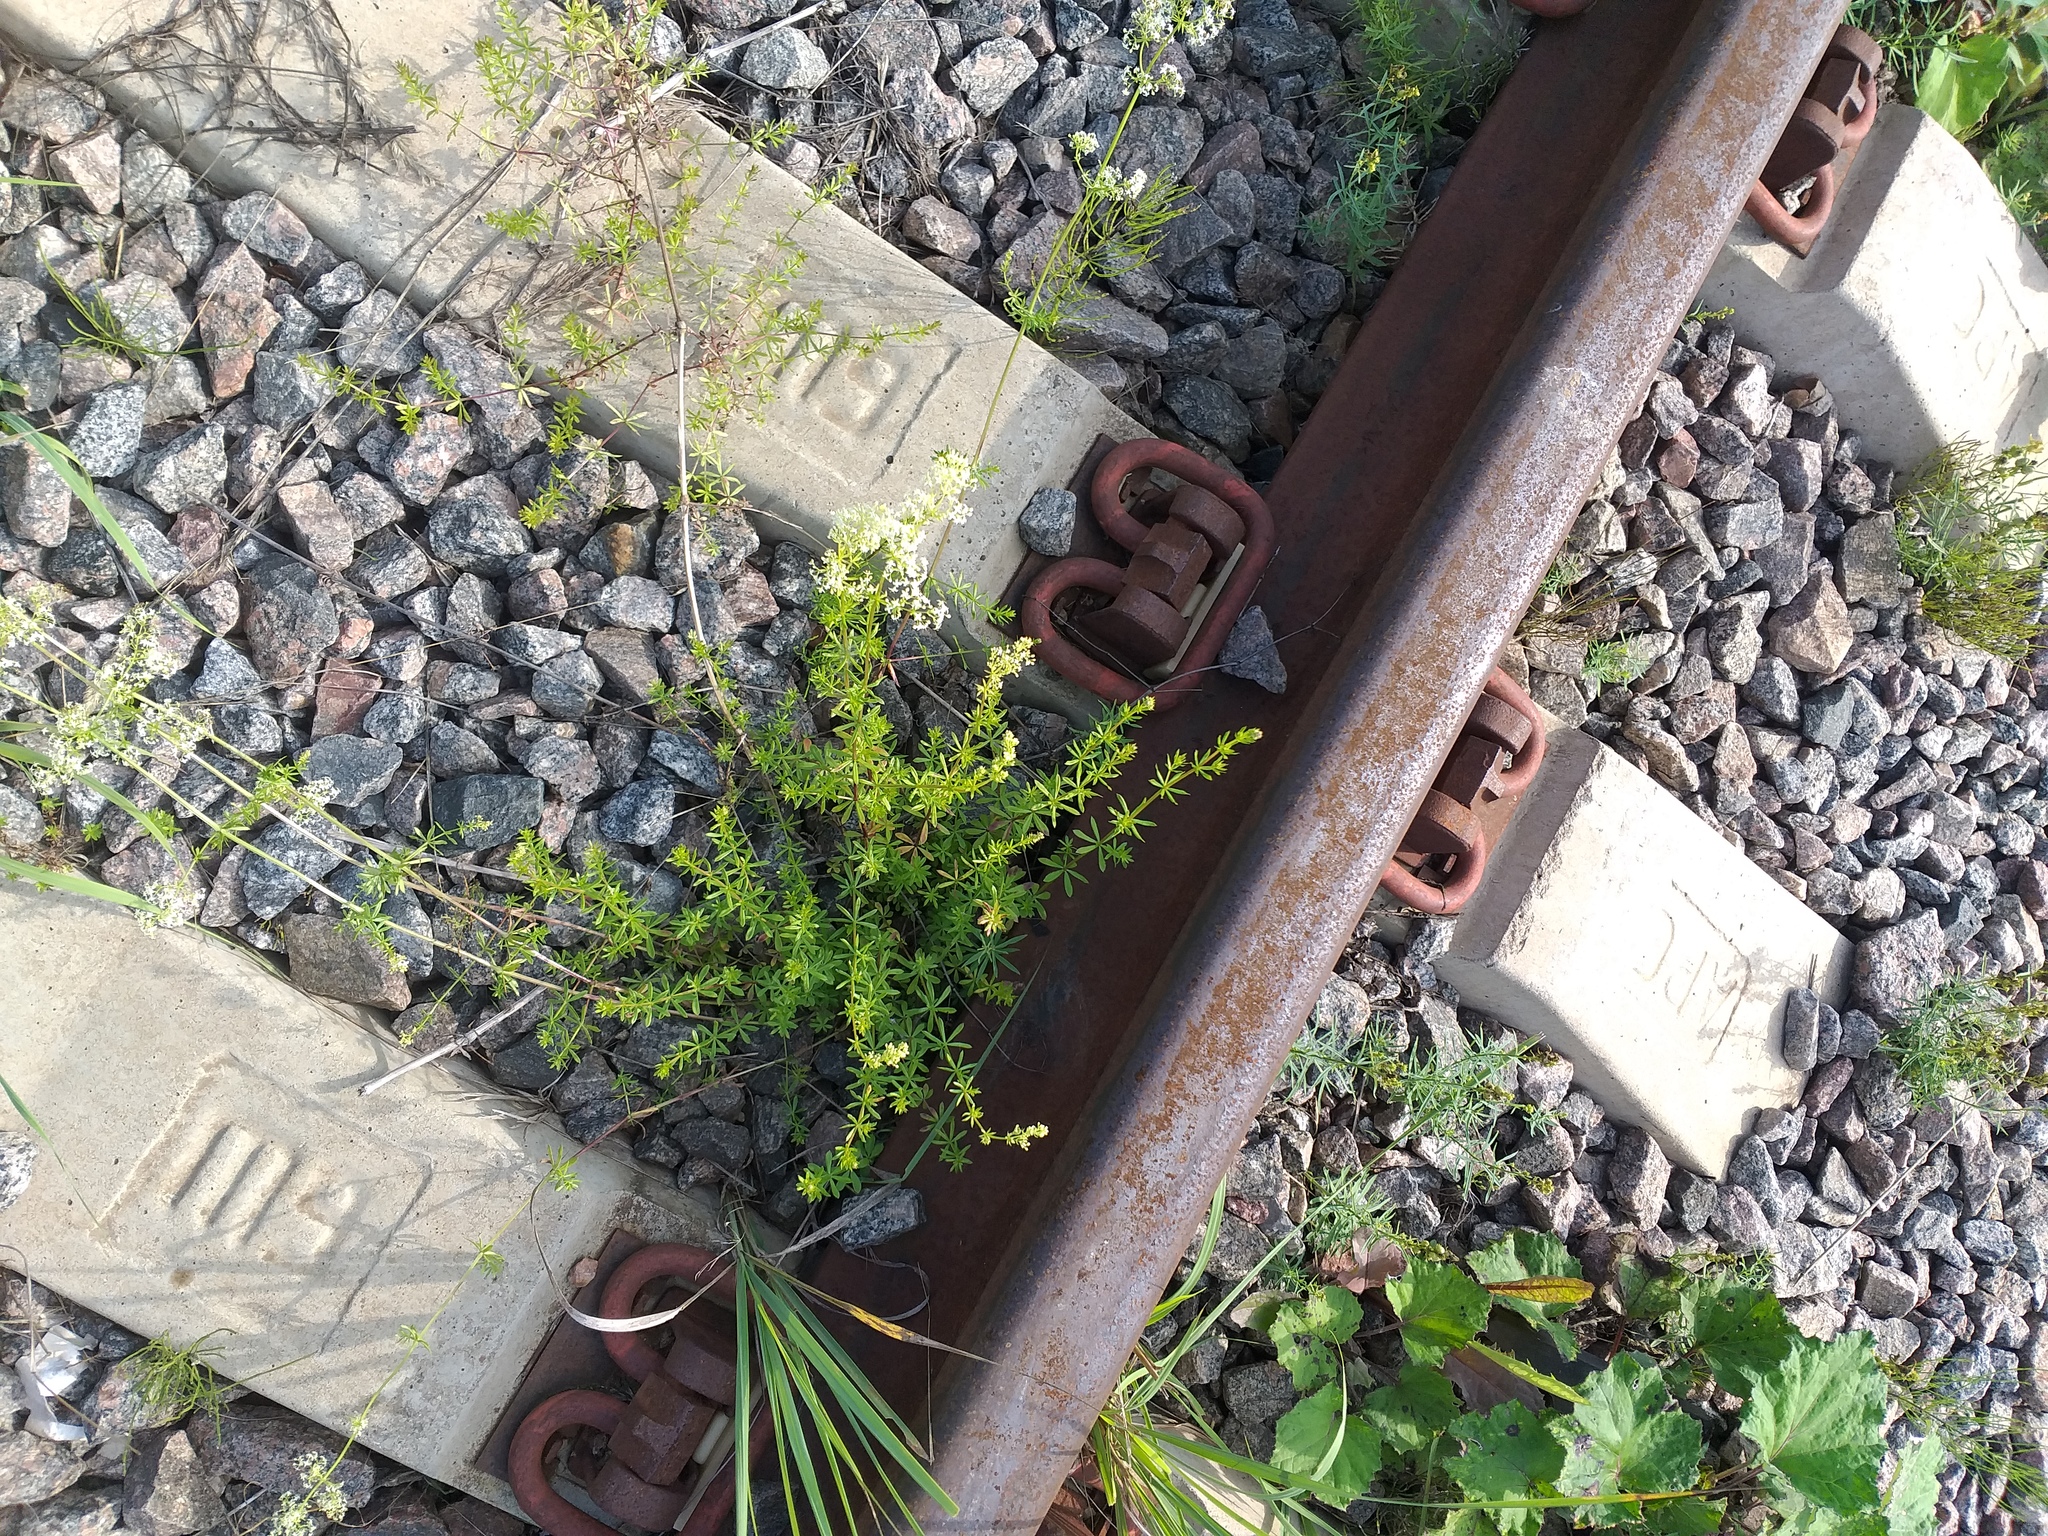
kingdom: Plantae
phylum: Tracheophyta
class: Magnoliopsida
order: Gentianales
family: Rubiaceae
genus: Galium
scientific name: Galium mollugo
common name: Hedge bedstraw
